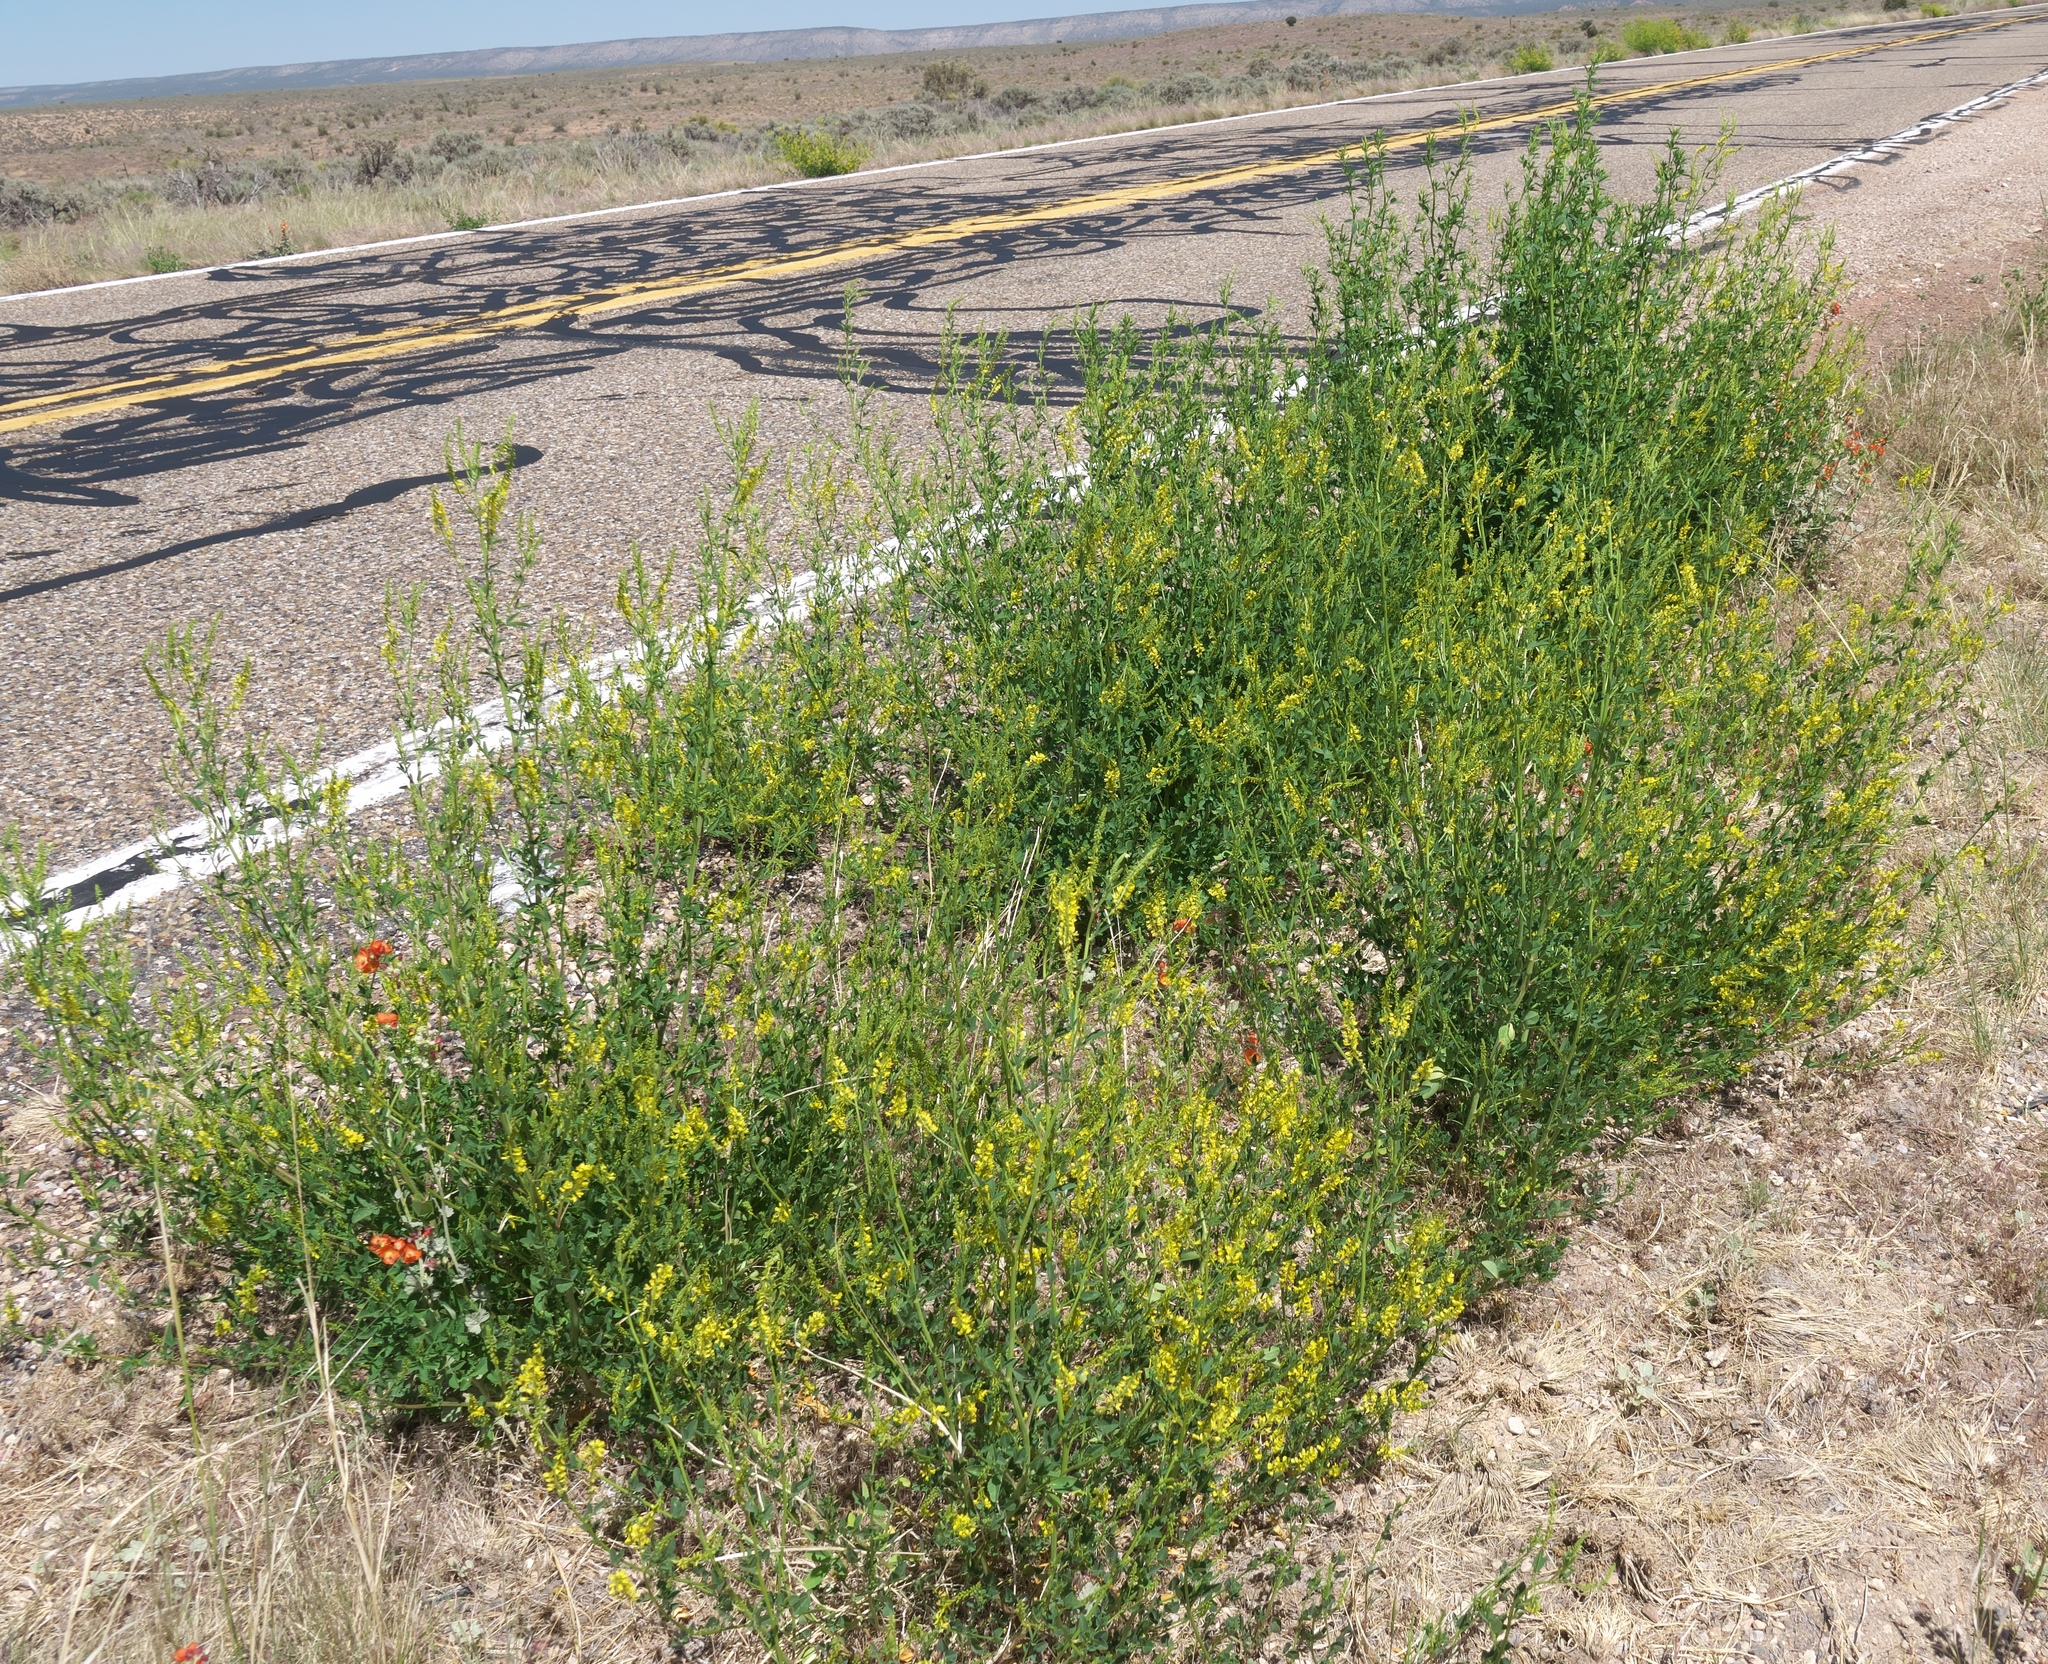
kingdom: Plantae
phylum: Tracheophyta
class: Magnoliopsida
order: Fabales
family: Fabaceae
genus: Melilotus
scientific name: Melilotus officinalis
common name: Sweetclover
